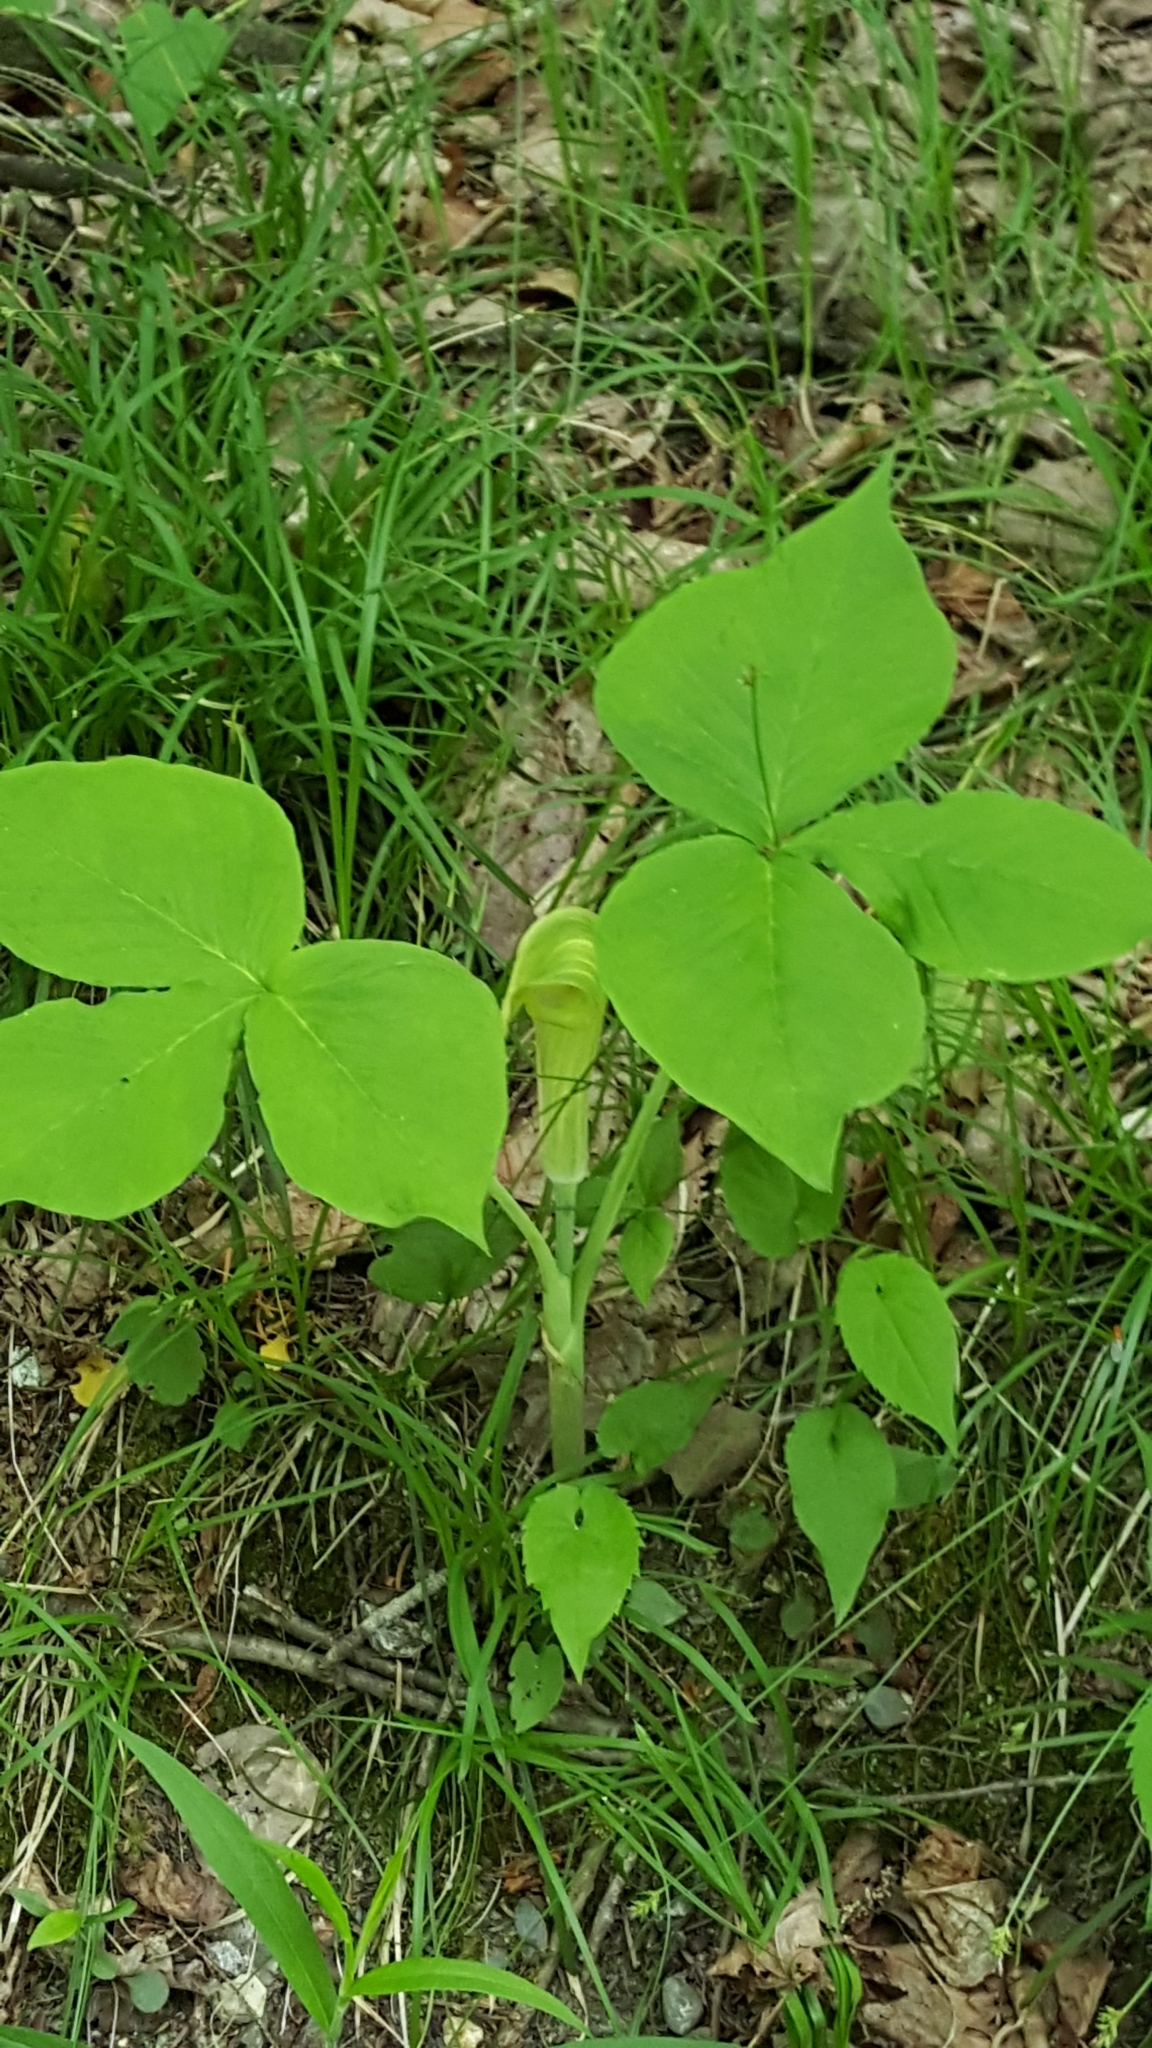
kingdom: Plantae
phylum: Tracheophyta
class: Liliopsida
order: Alismatales
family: Araceae
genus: Arisaema
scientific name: Arisaema triphyllum
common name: Jack-in-the-pulpit
